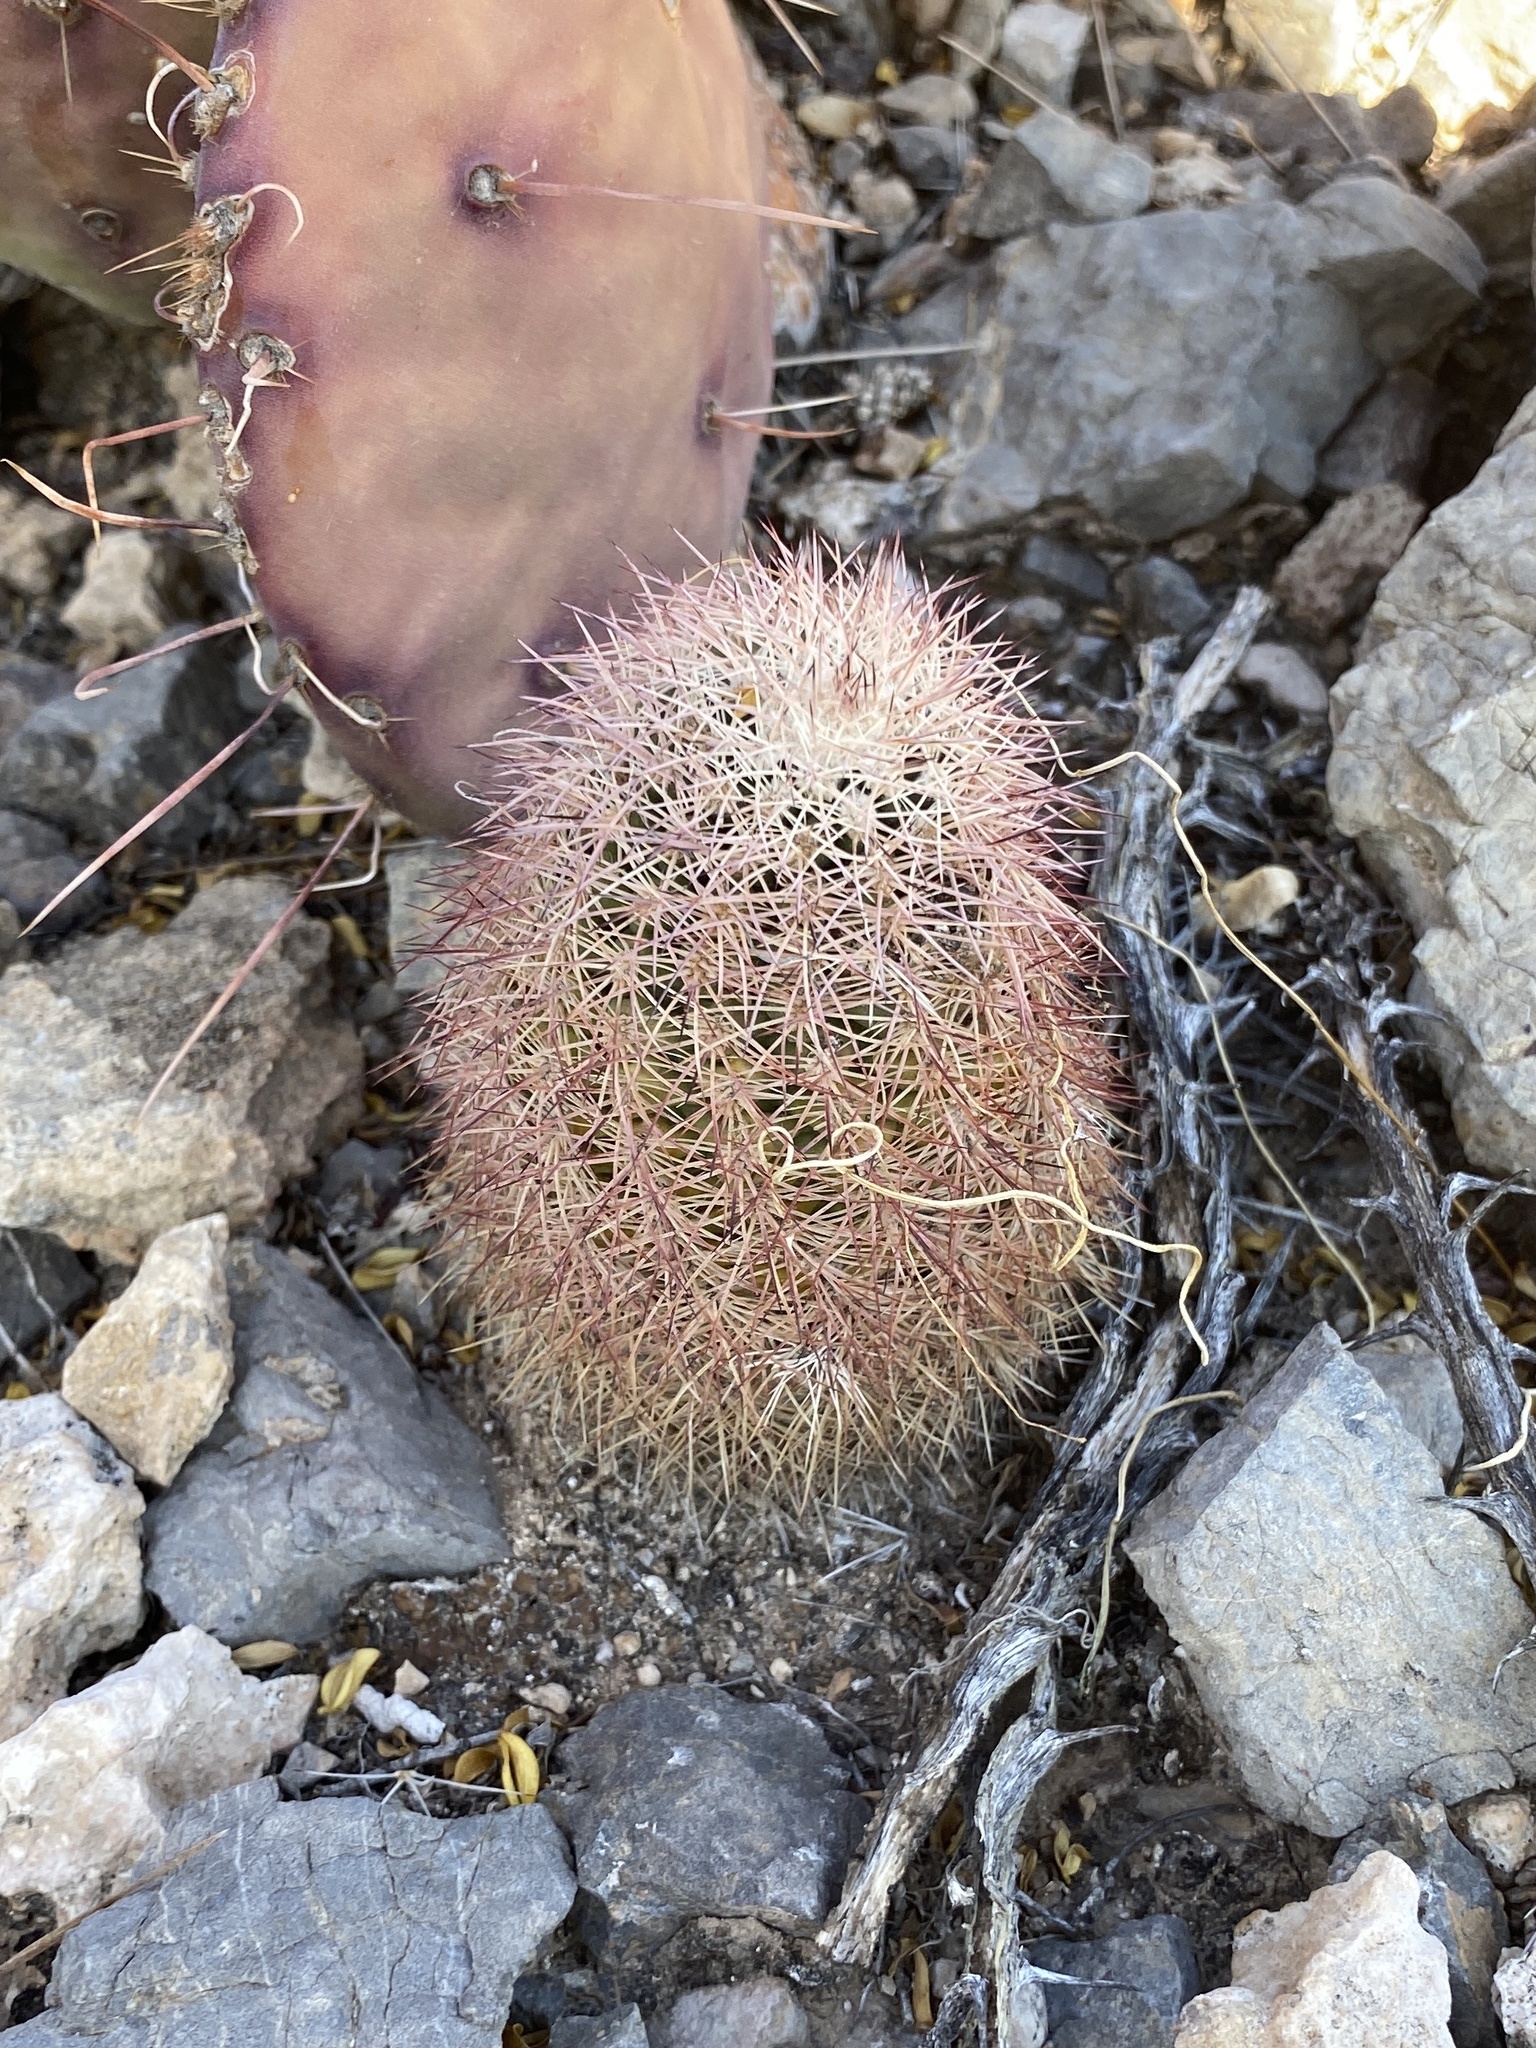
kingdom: Plantae
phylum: Tracheophyta
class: Magnoliopsida
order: Caryophyllales
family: Cactaceae
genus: Echinocereus
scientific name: Echinocereus dasyacanthus
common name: Spiny hedgehog cactus
